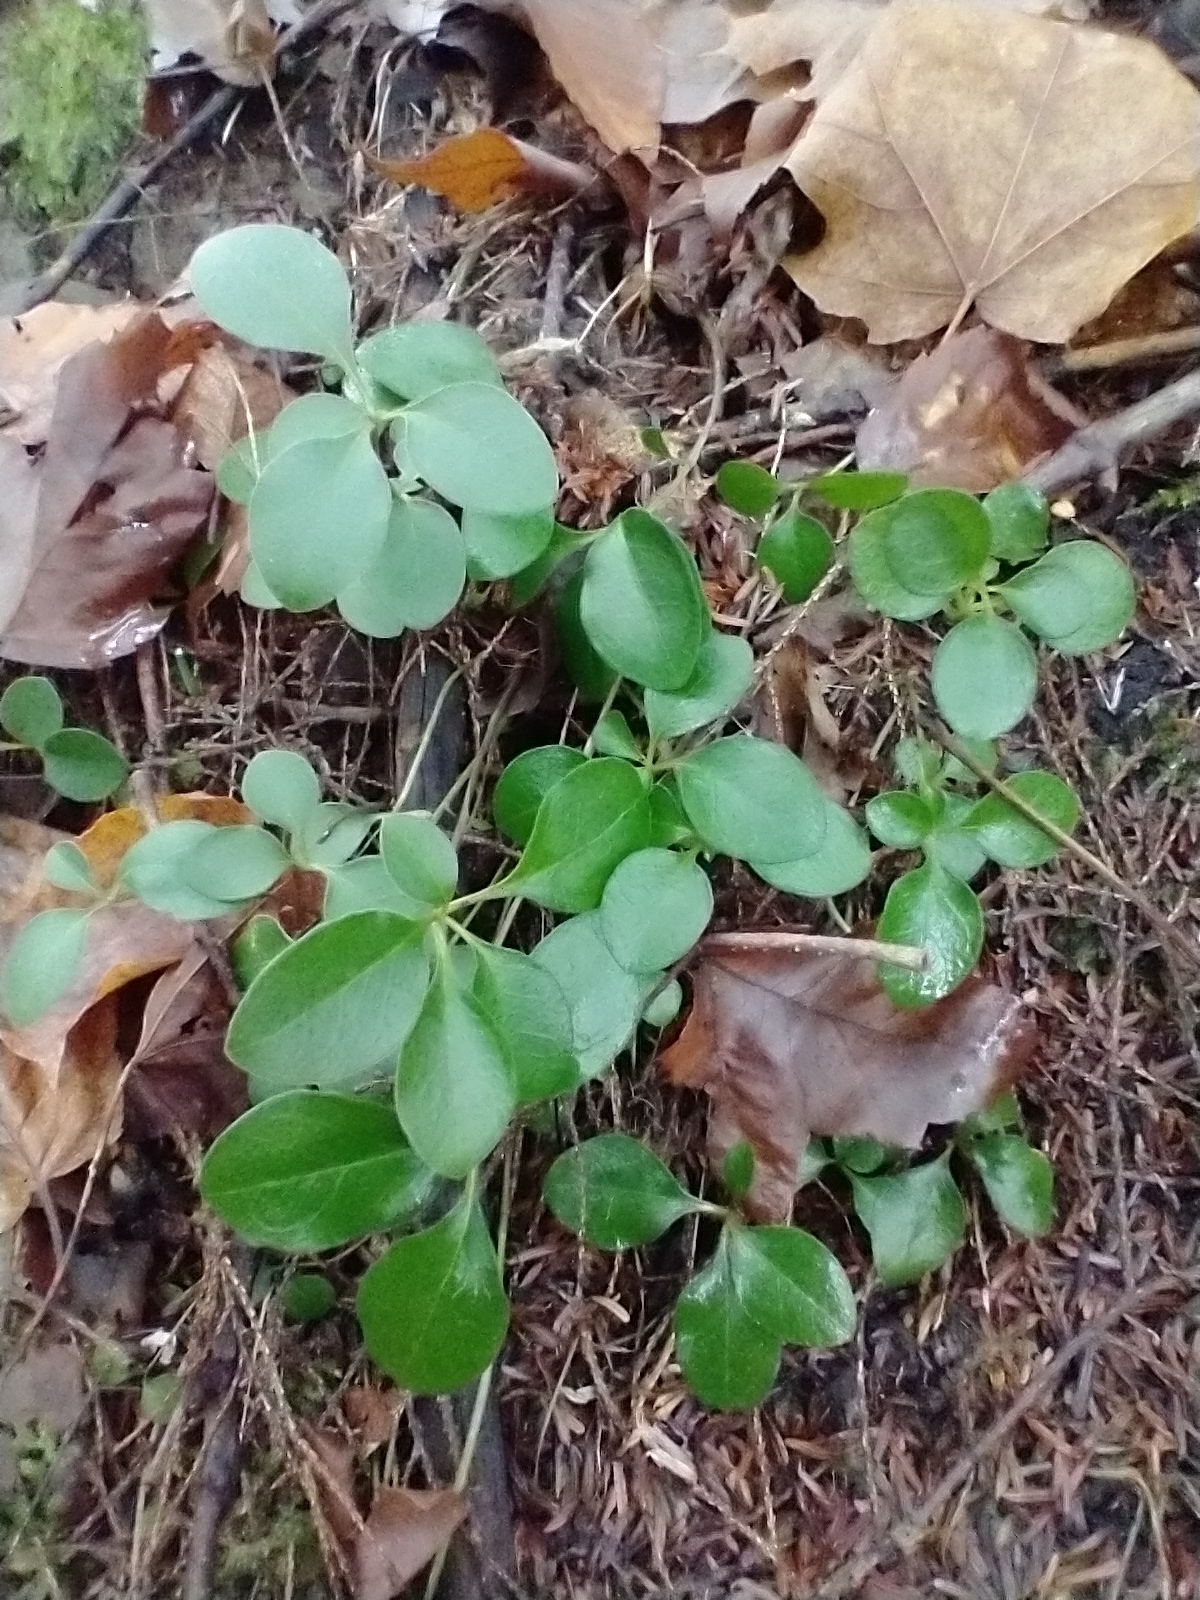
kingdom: Plantae
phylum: Tracheophyta
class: Magnoliopsida
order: Fabales
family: Polygalaceae
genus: Polygaloides
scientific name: Polygaloides paucifolia
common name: Bird-on-the-wing
